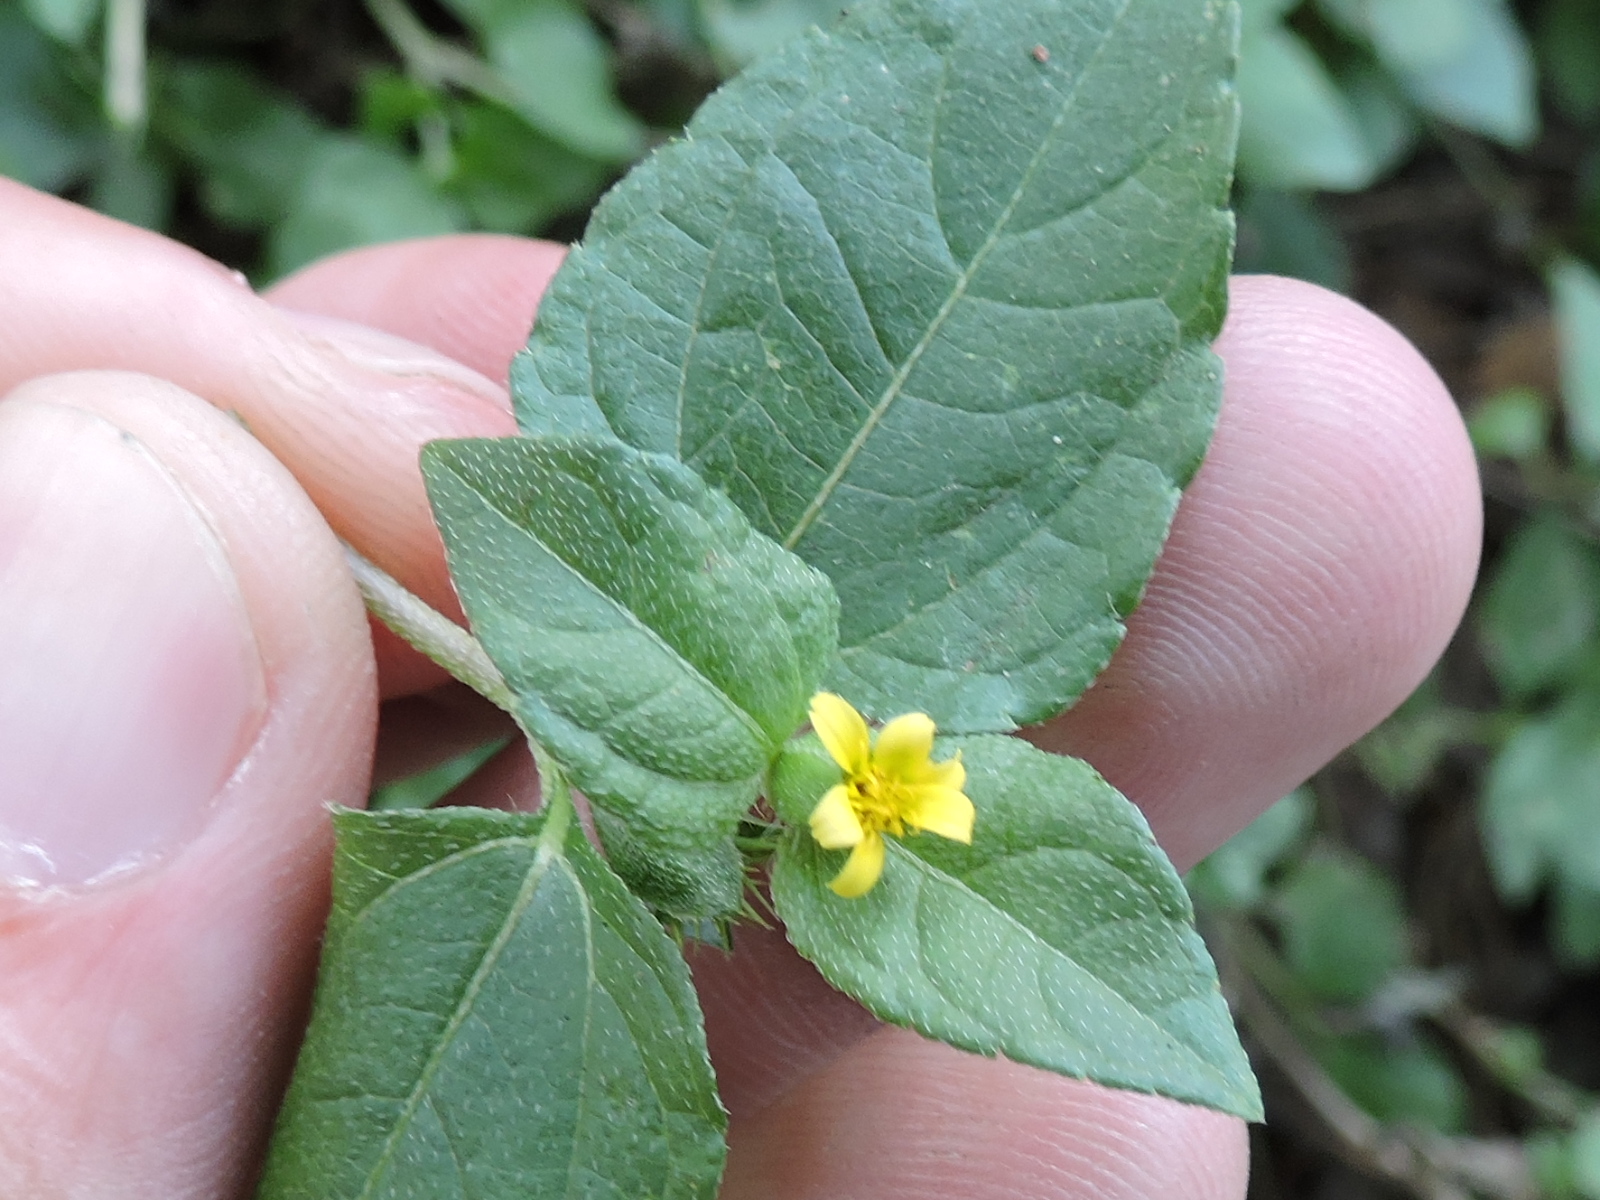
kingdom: Plantae
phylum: Tracheophyta
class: Magnoliopsida
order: Asterales
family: Asteraceae
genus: Calyptocarpus
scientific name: Calyptocarpus vialis
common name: Straggler daisy
